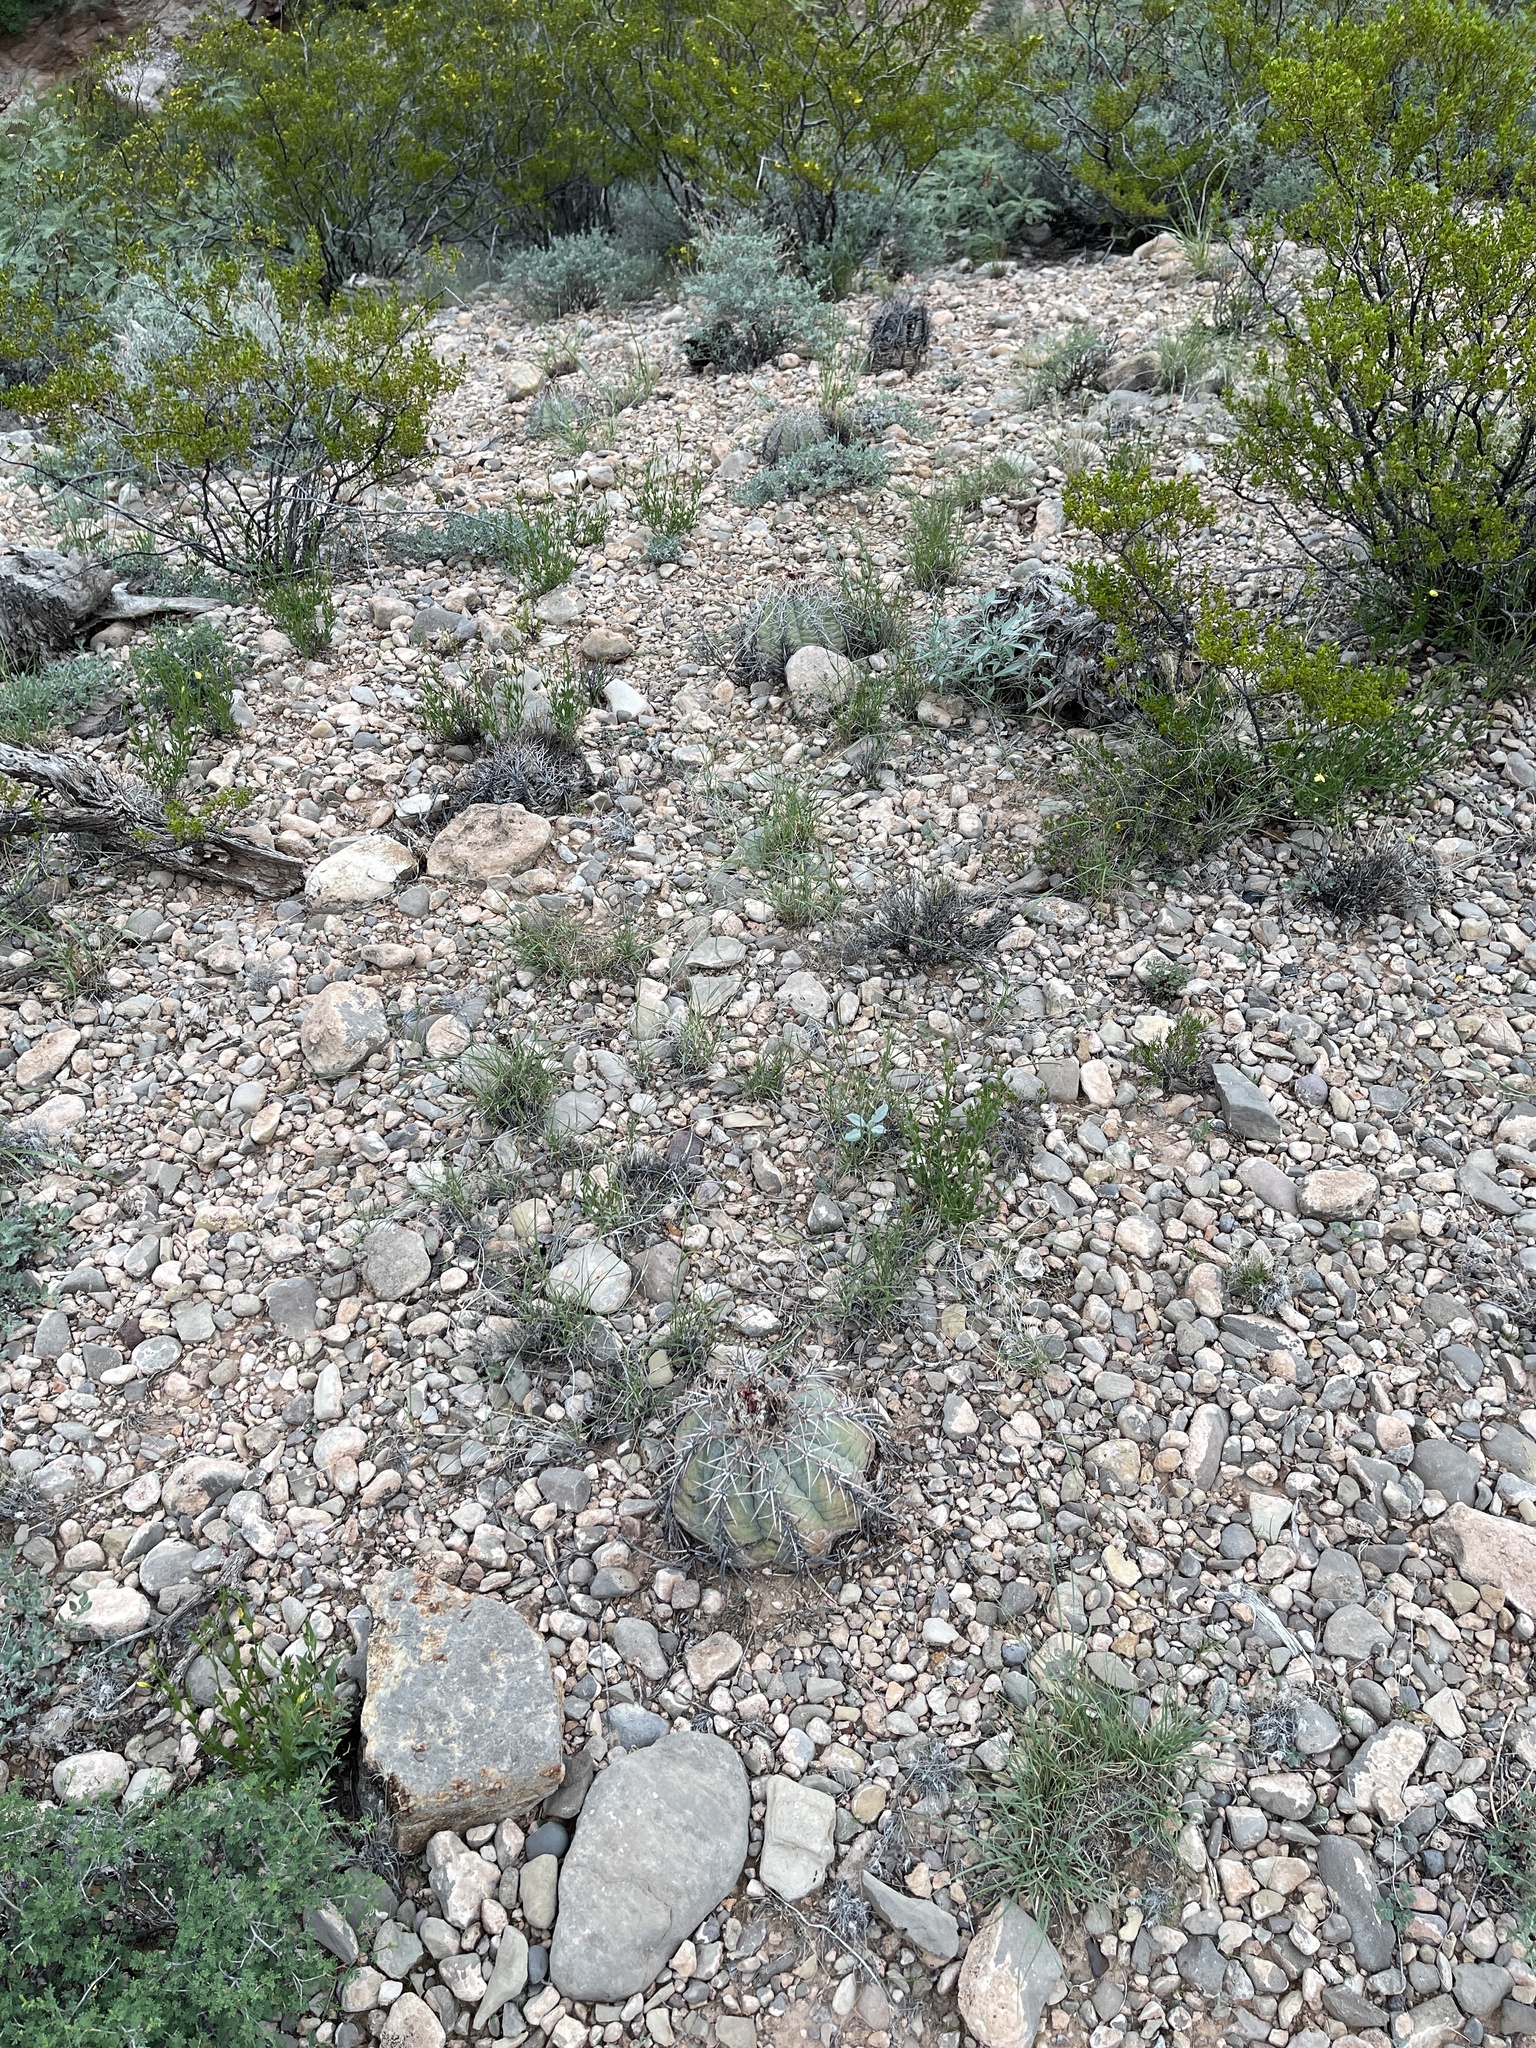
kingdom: Plantae
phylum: Tracheophyta
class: Magnoliopsida
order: Caryophyllales
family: Cactaceae
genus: Echinocactus
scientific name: Echinocactus horizonthalonius
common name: Devilshead
